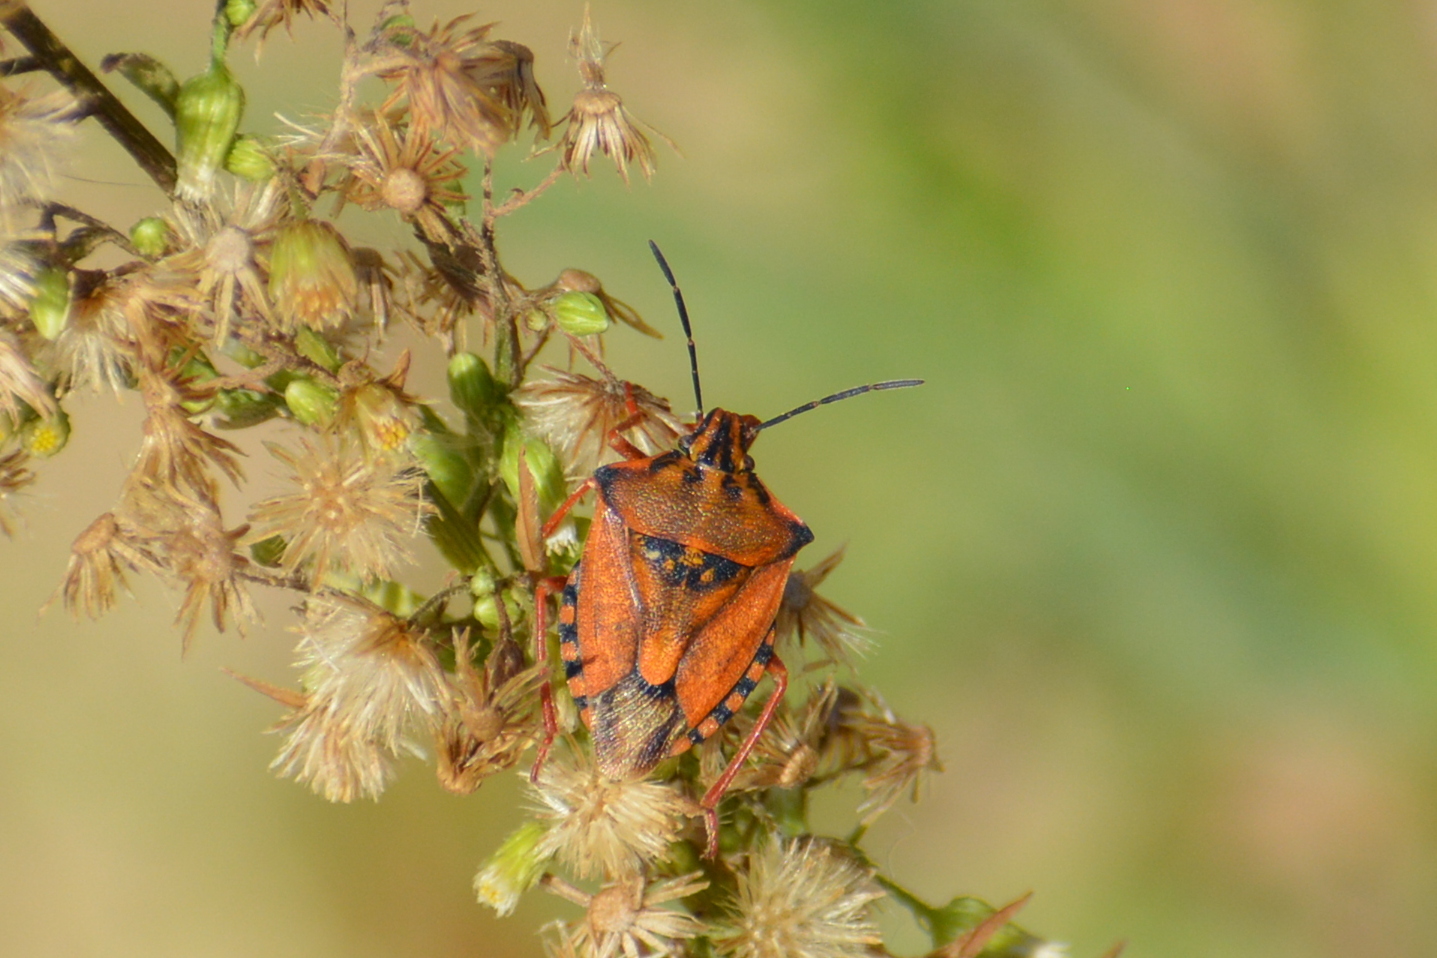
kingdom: Animalia
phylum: Arthropoda
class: Insecta
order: Hemiptera
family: Pentatomidae
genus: Carpocoris
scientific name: Carpocoris mediterraneus
